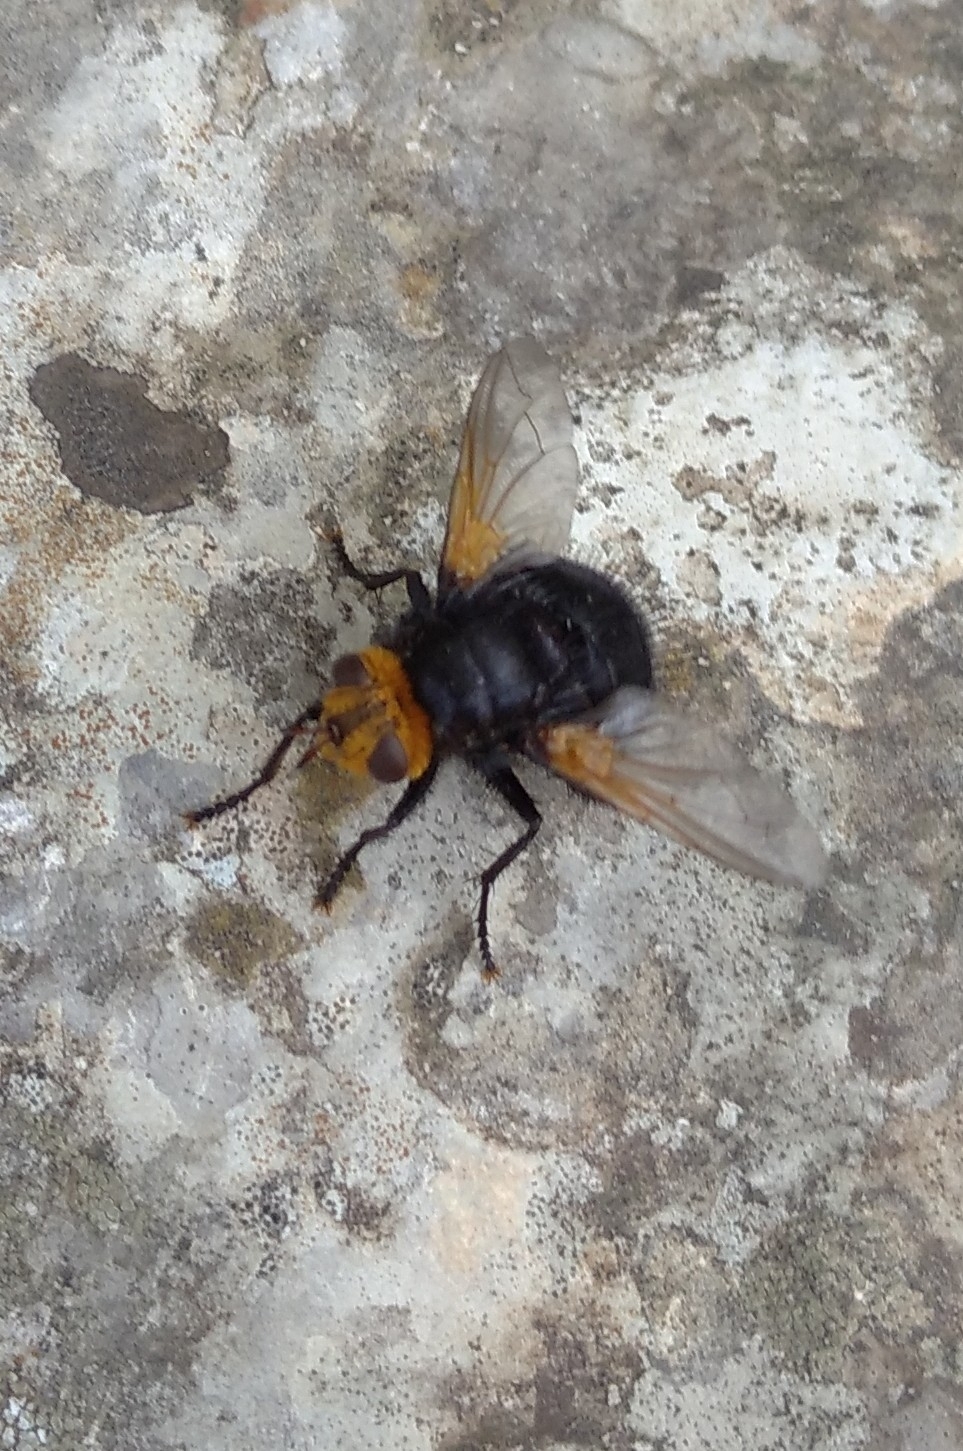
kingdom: Animalia
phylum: Arthropoda
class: Insecta
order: Diptera
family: Tachinidae
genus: Tachina
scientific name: Tachina grossa
